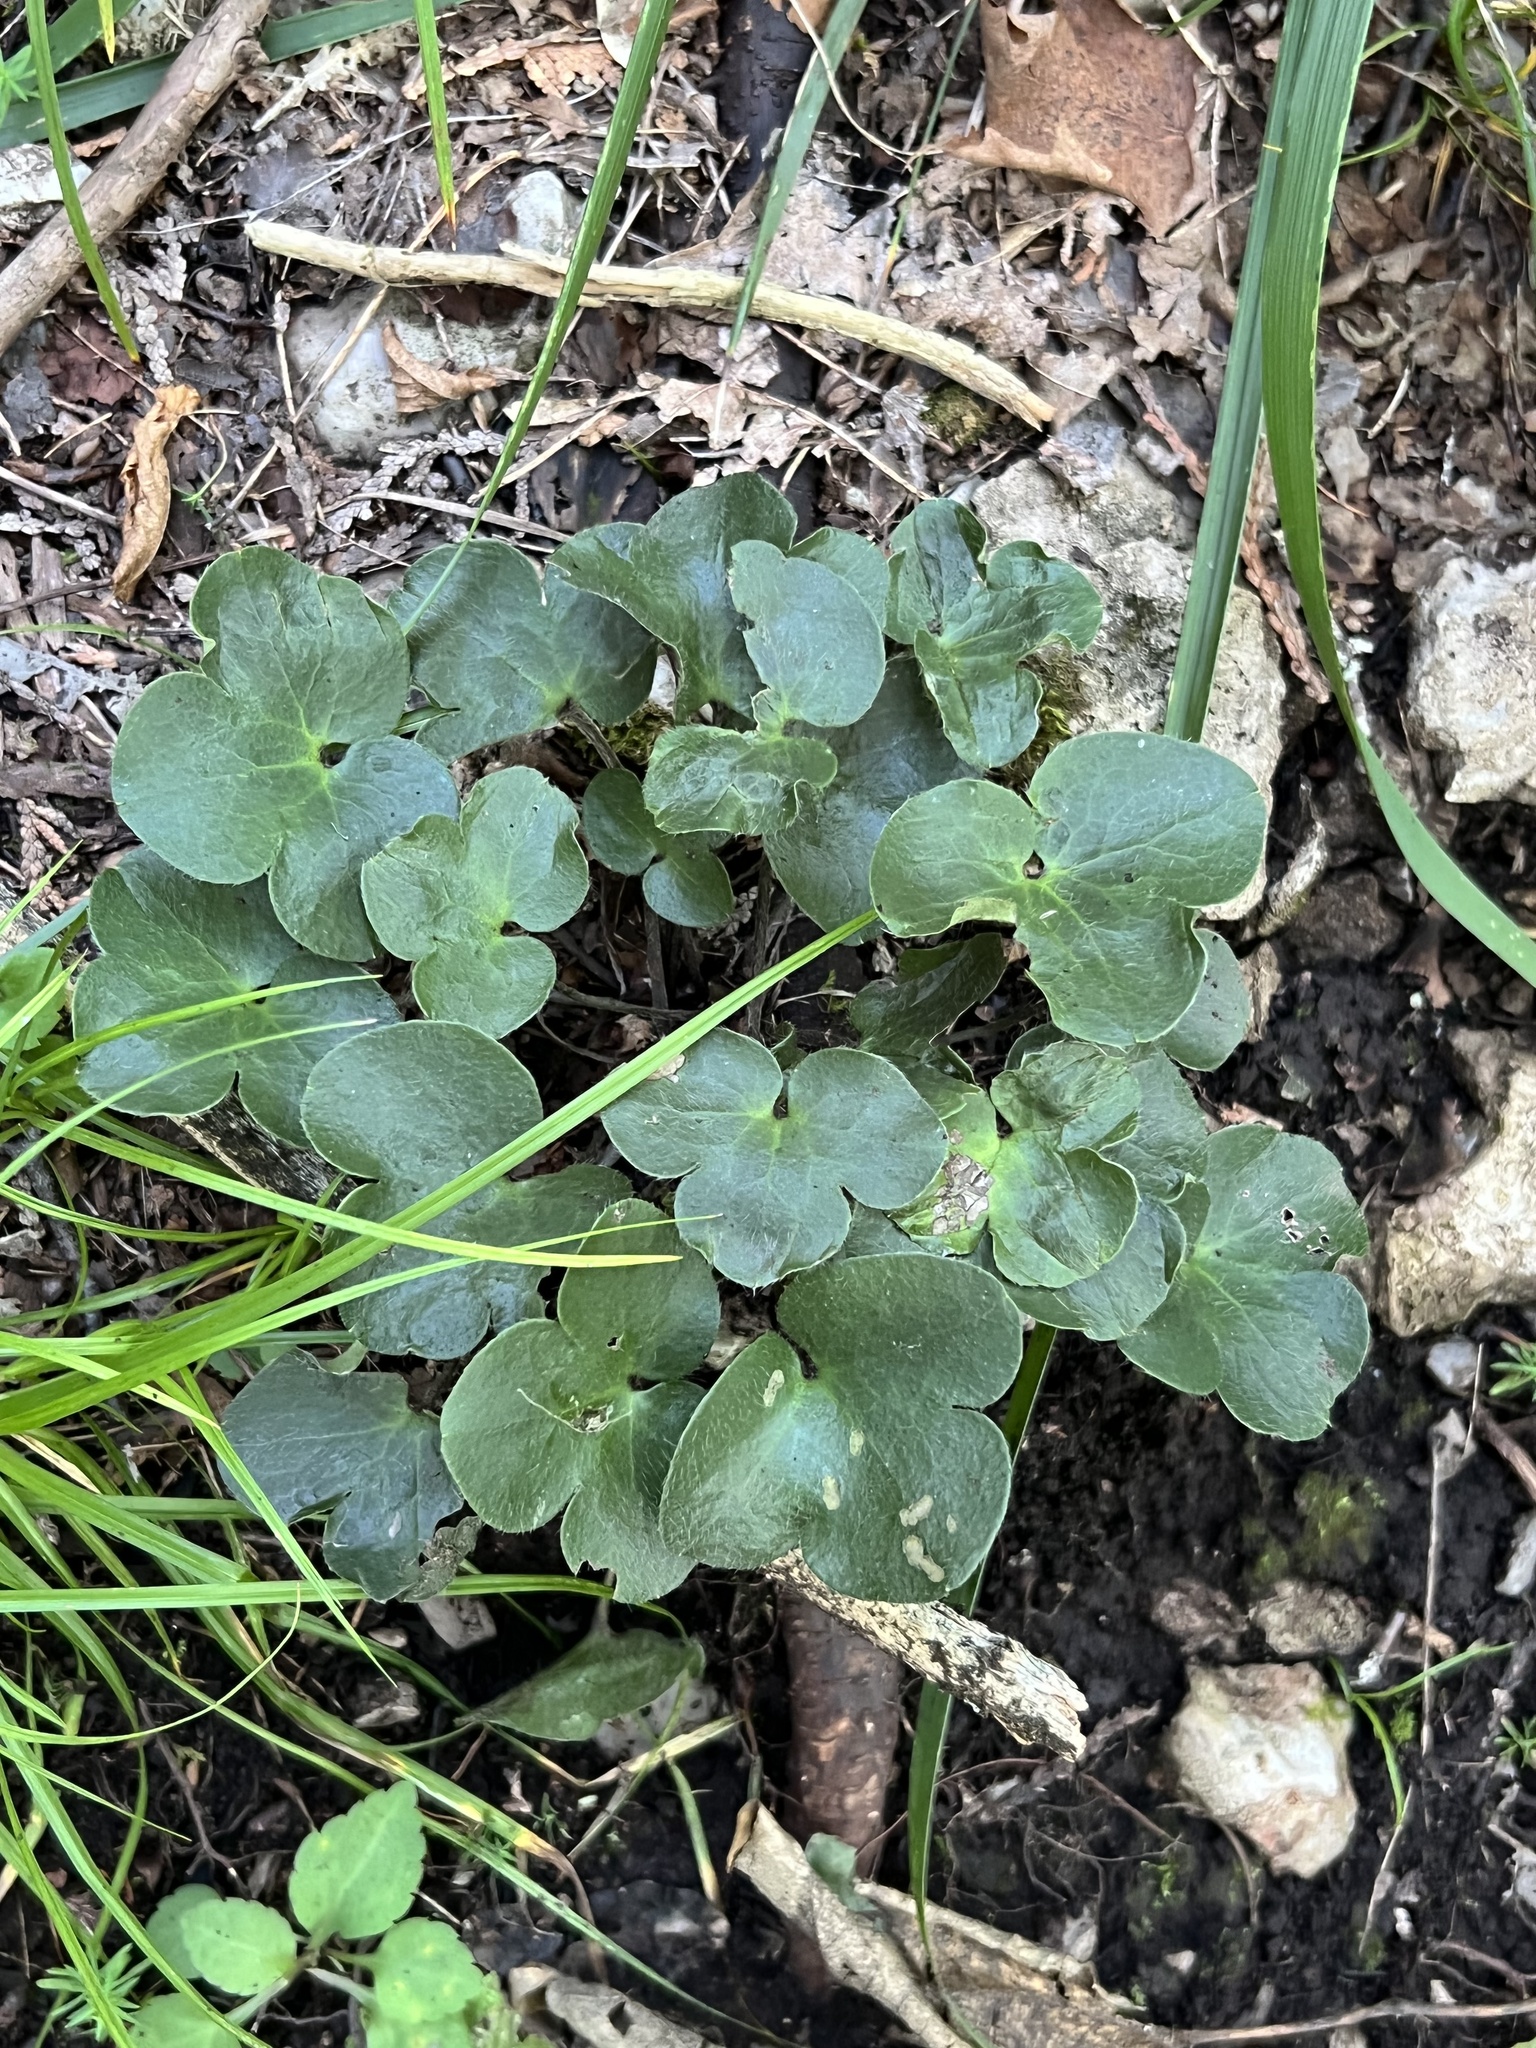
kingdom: Plantae
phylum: Tracheophyta
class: Magnoliopsida
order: Ranunculales
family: Ranunculaceae
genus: Hepatica
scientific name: Hepatica americana
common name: American hepatica
